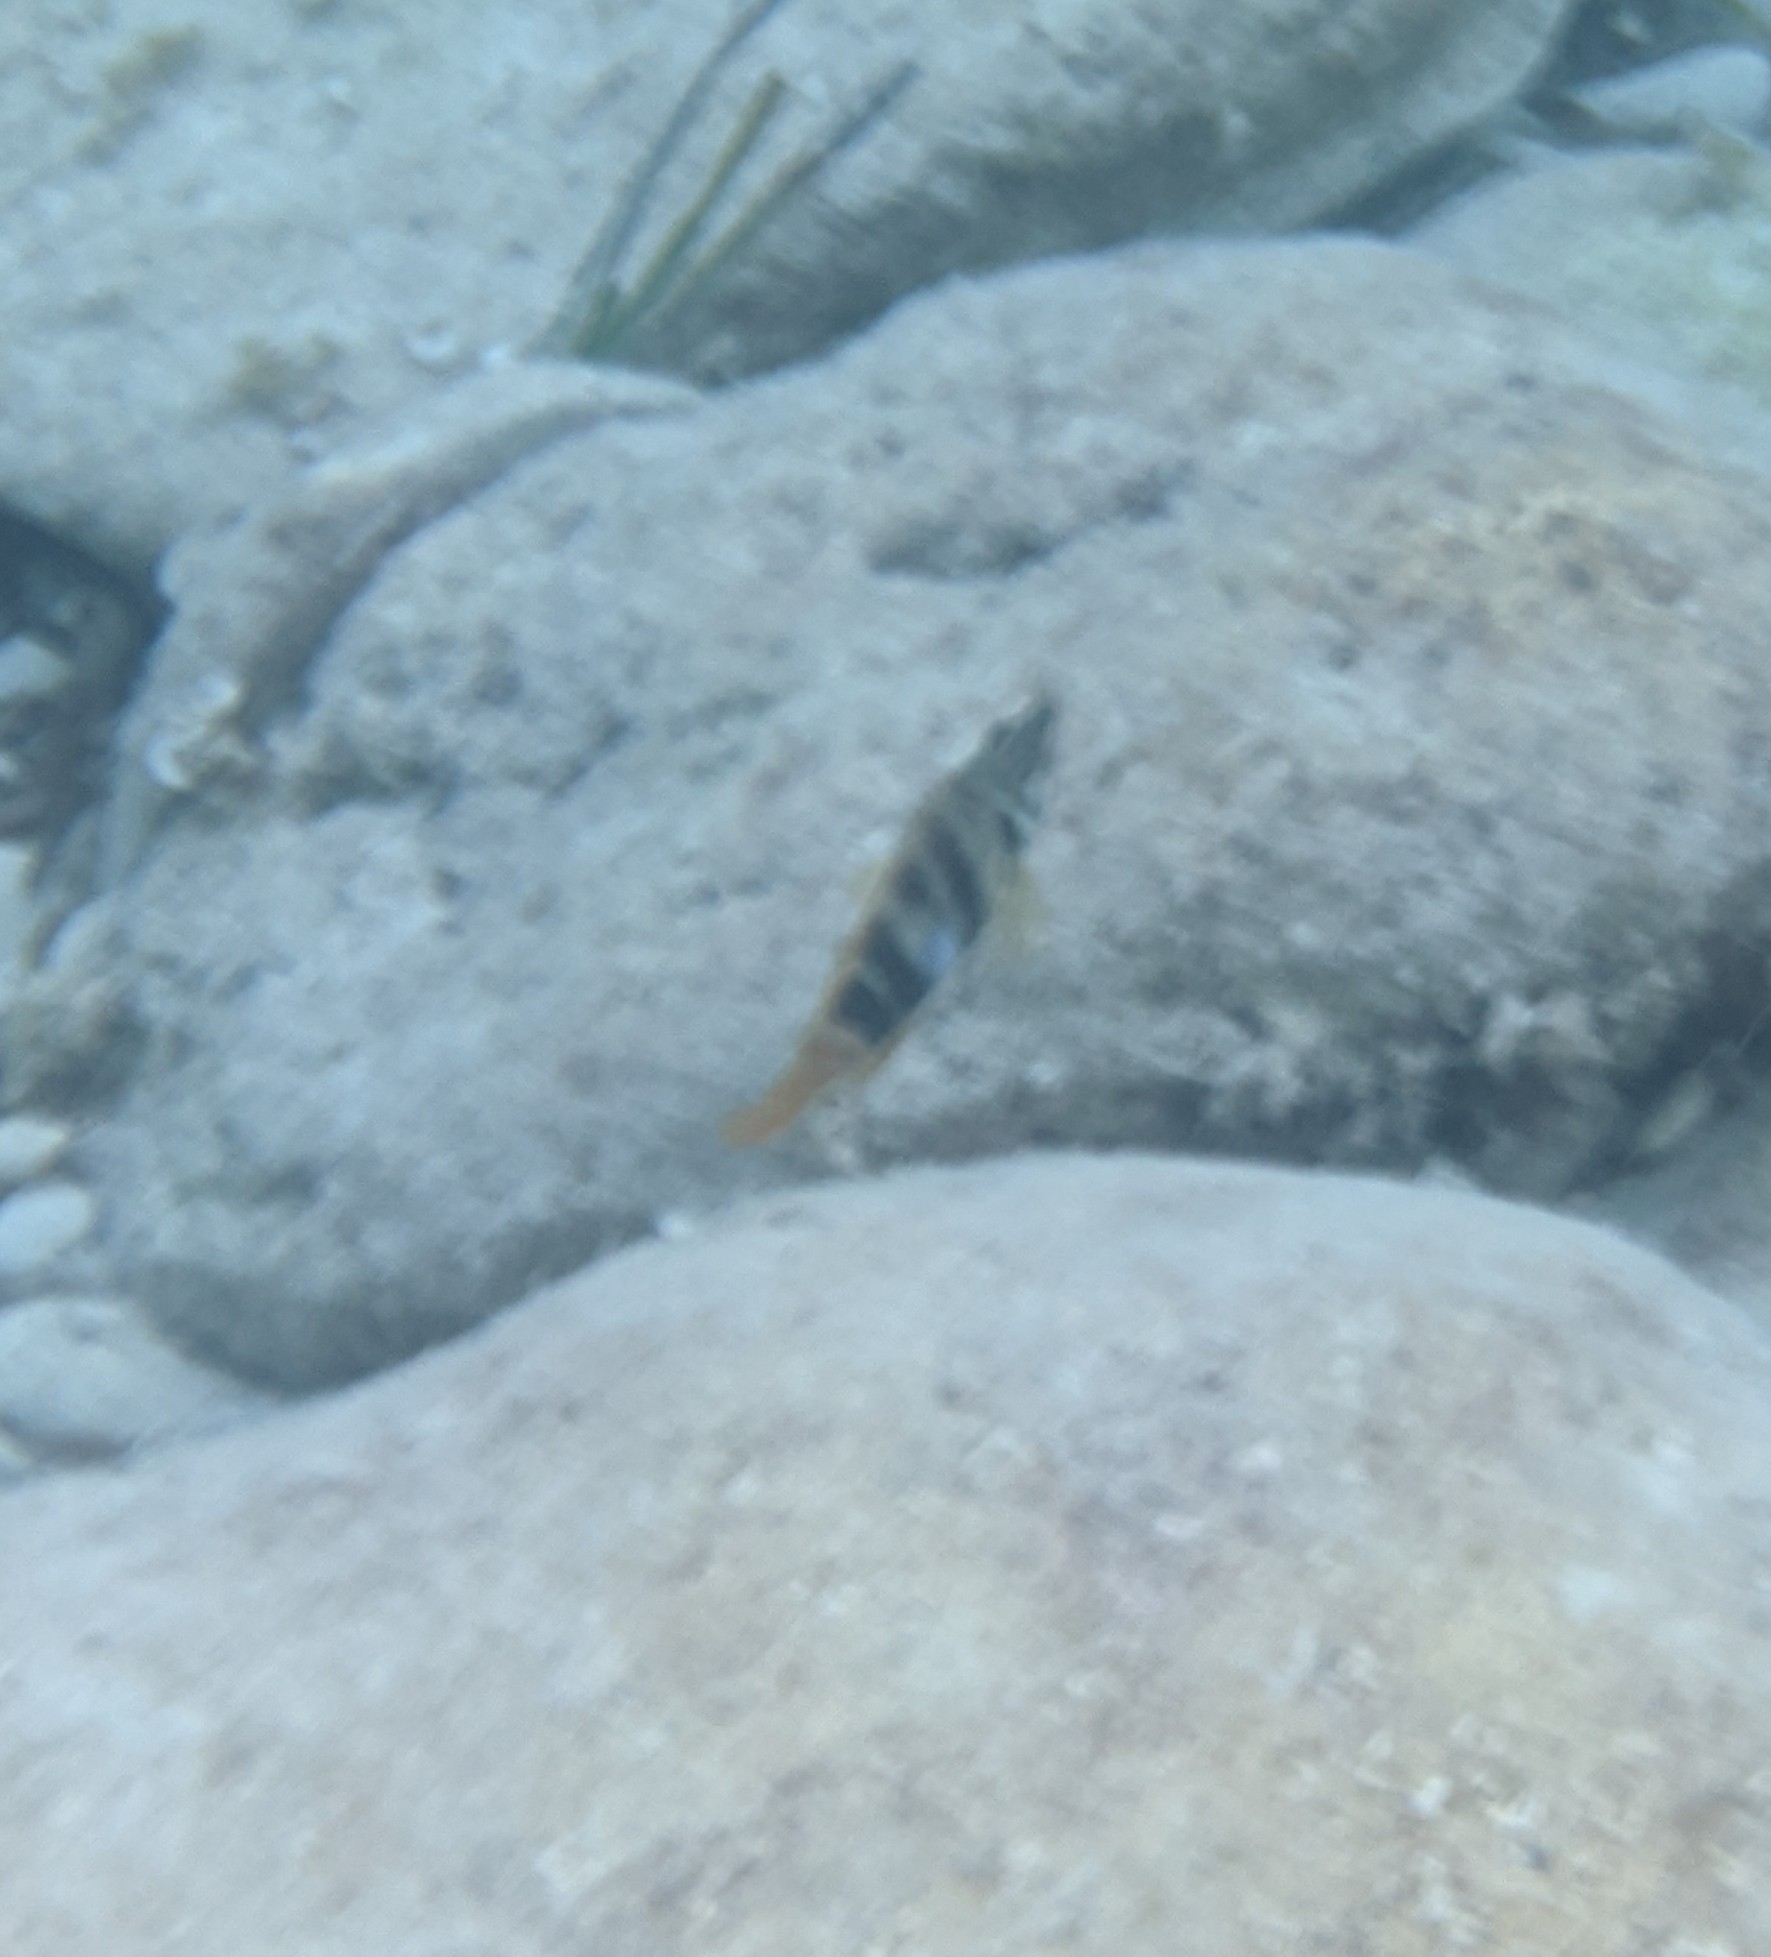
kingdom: Animalia
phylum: Chordata
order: Perciformes
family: Serranidae
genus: Serranus
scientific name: Serranus scriba
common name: Painted comber
